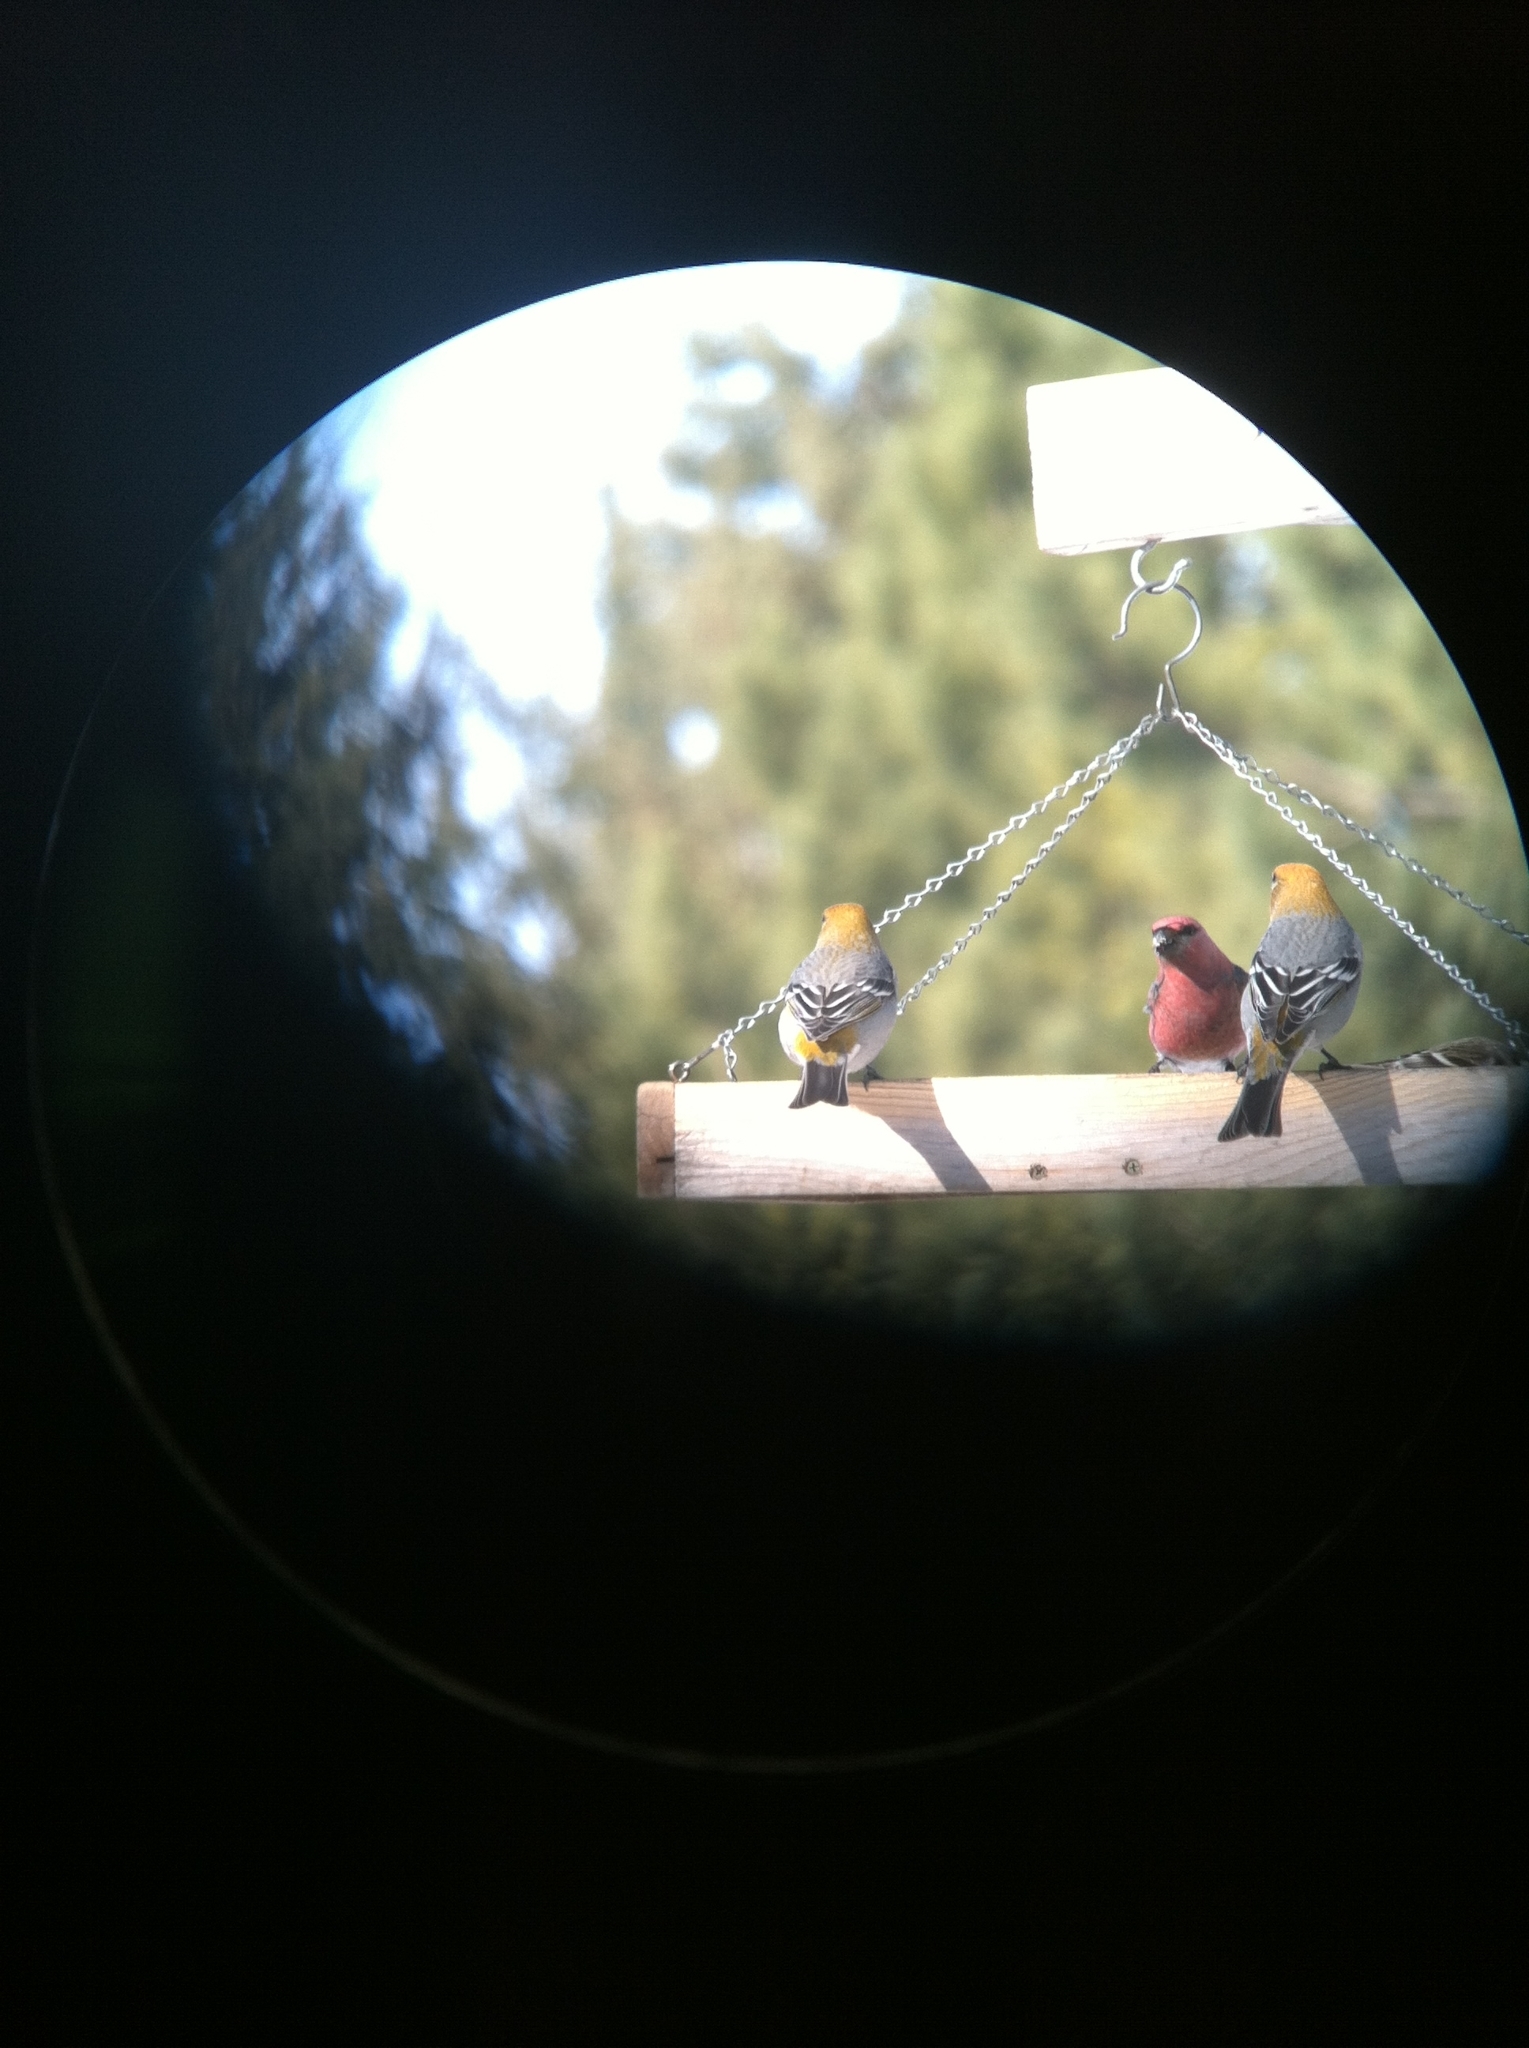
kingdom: Animalia
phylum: Chordata
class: Aves
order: Passeriformes
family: Fringillidae
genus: Pinicola
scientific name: Pinicola enucleator
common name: Pine grosbeak
